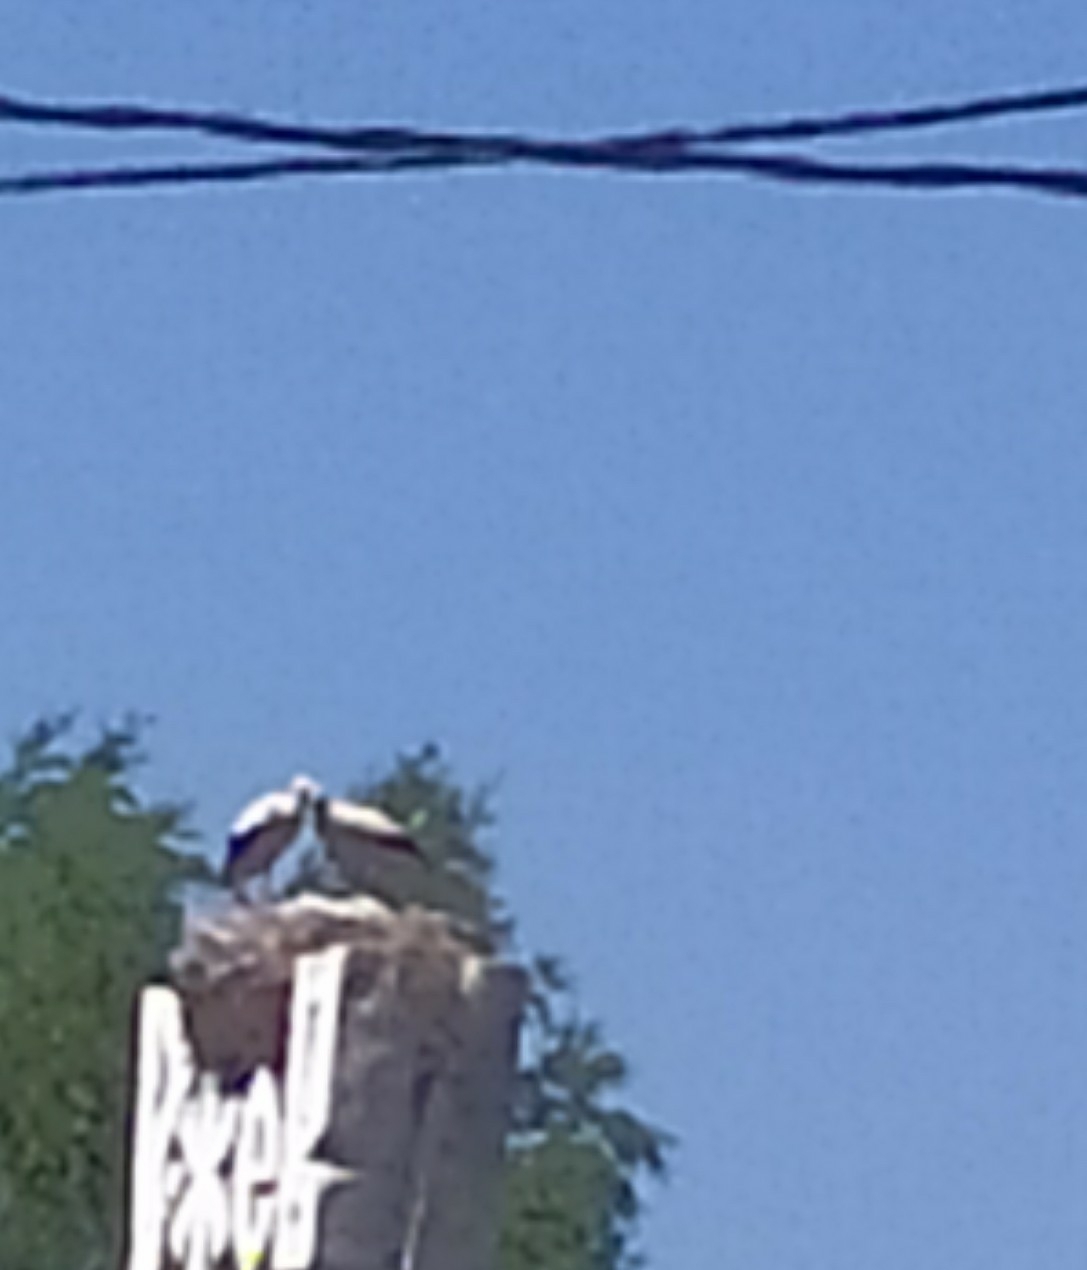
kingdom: Animalia
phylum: Chordata
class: Aves
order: Ciconiiformes
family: Ciconiidae
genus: Ciconia
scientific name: Ciconia ciconia
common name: White stork
